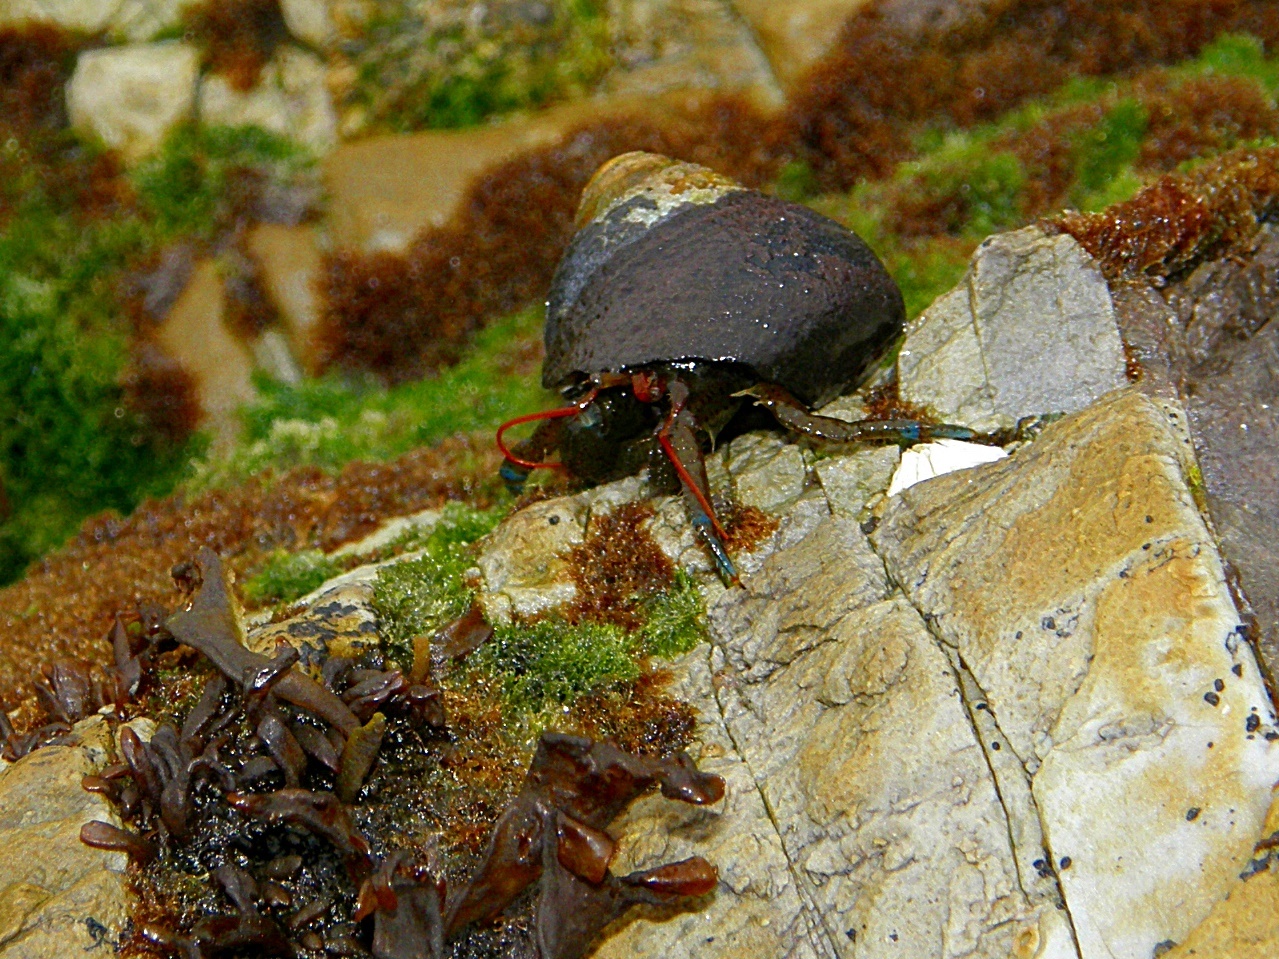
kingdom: Animalia
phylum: Arthropoda
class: Malacostraca
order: Decapoda
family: Paguridae
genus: Pagurus
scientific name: Pagurus samuelis
